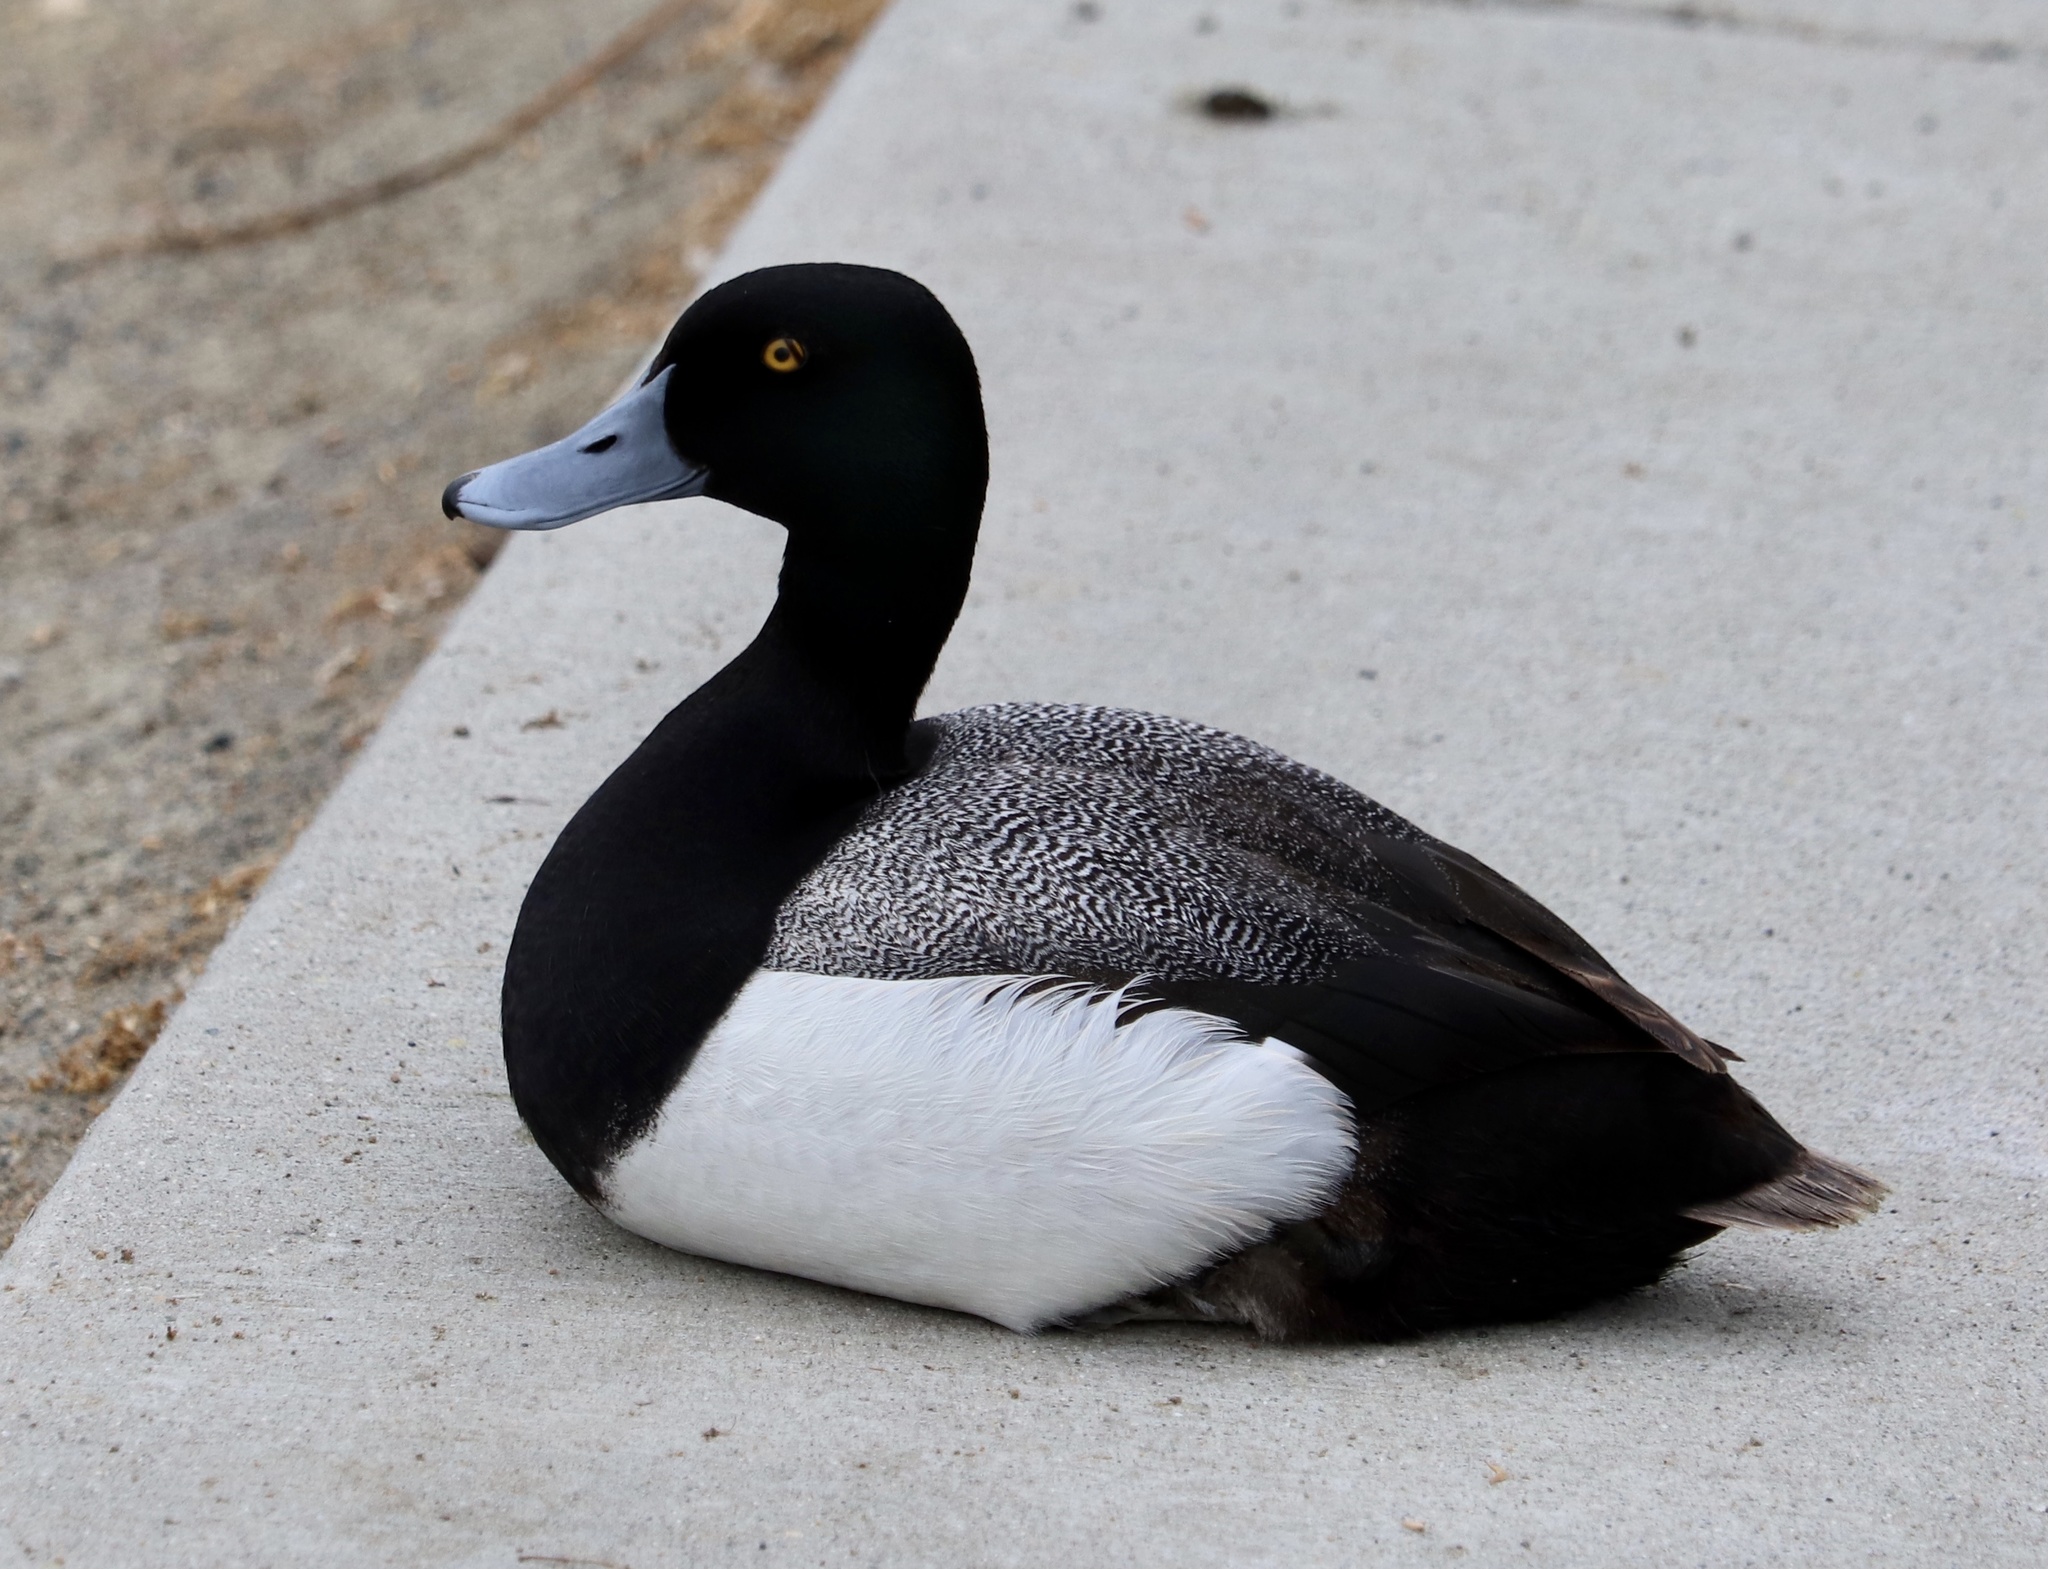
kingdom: Animalia
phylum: Chordata
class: Aves
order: Anseriformes
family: Anatidae
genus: Aythya
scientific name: Aythya marila
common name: Greater scaup
